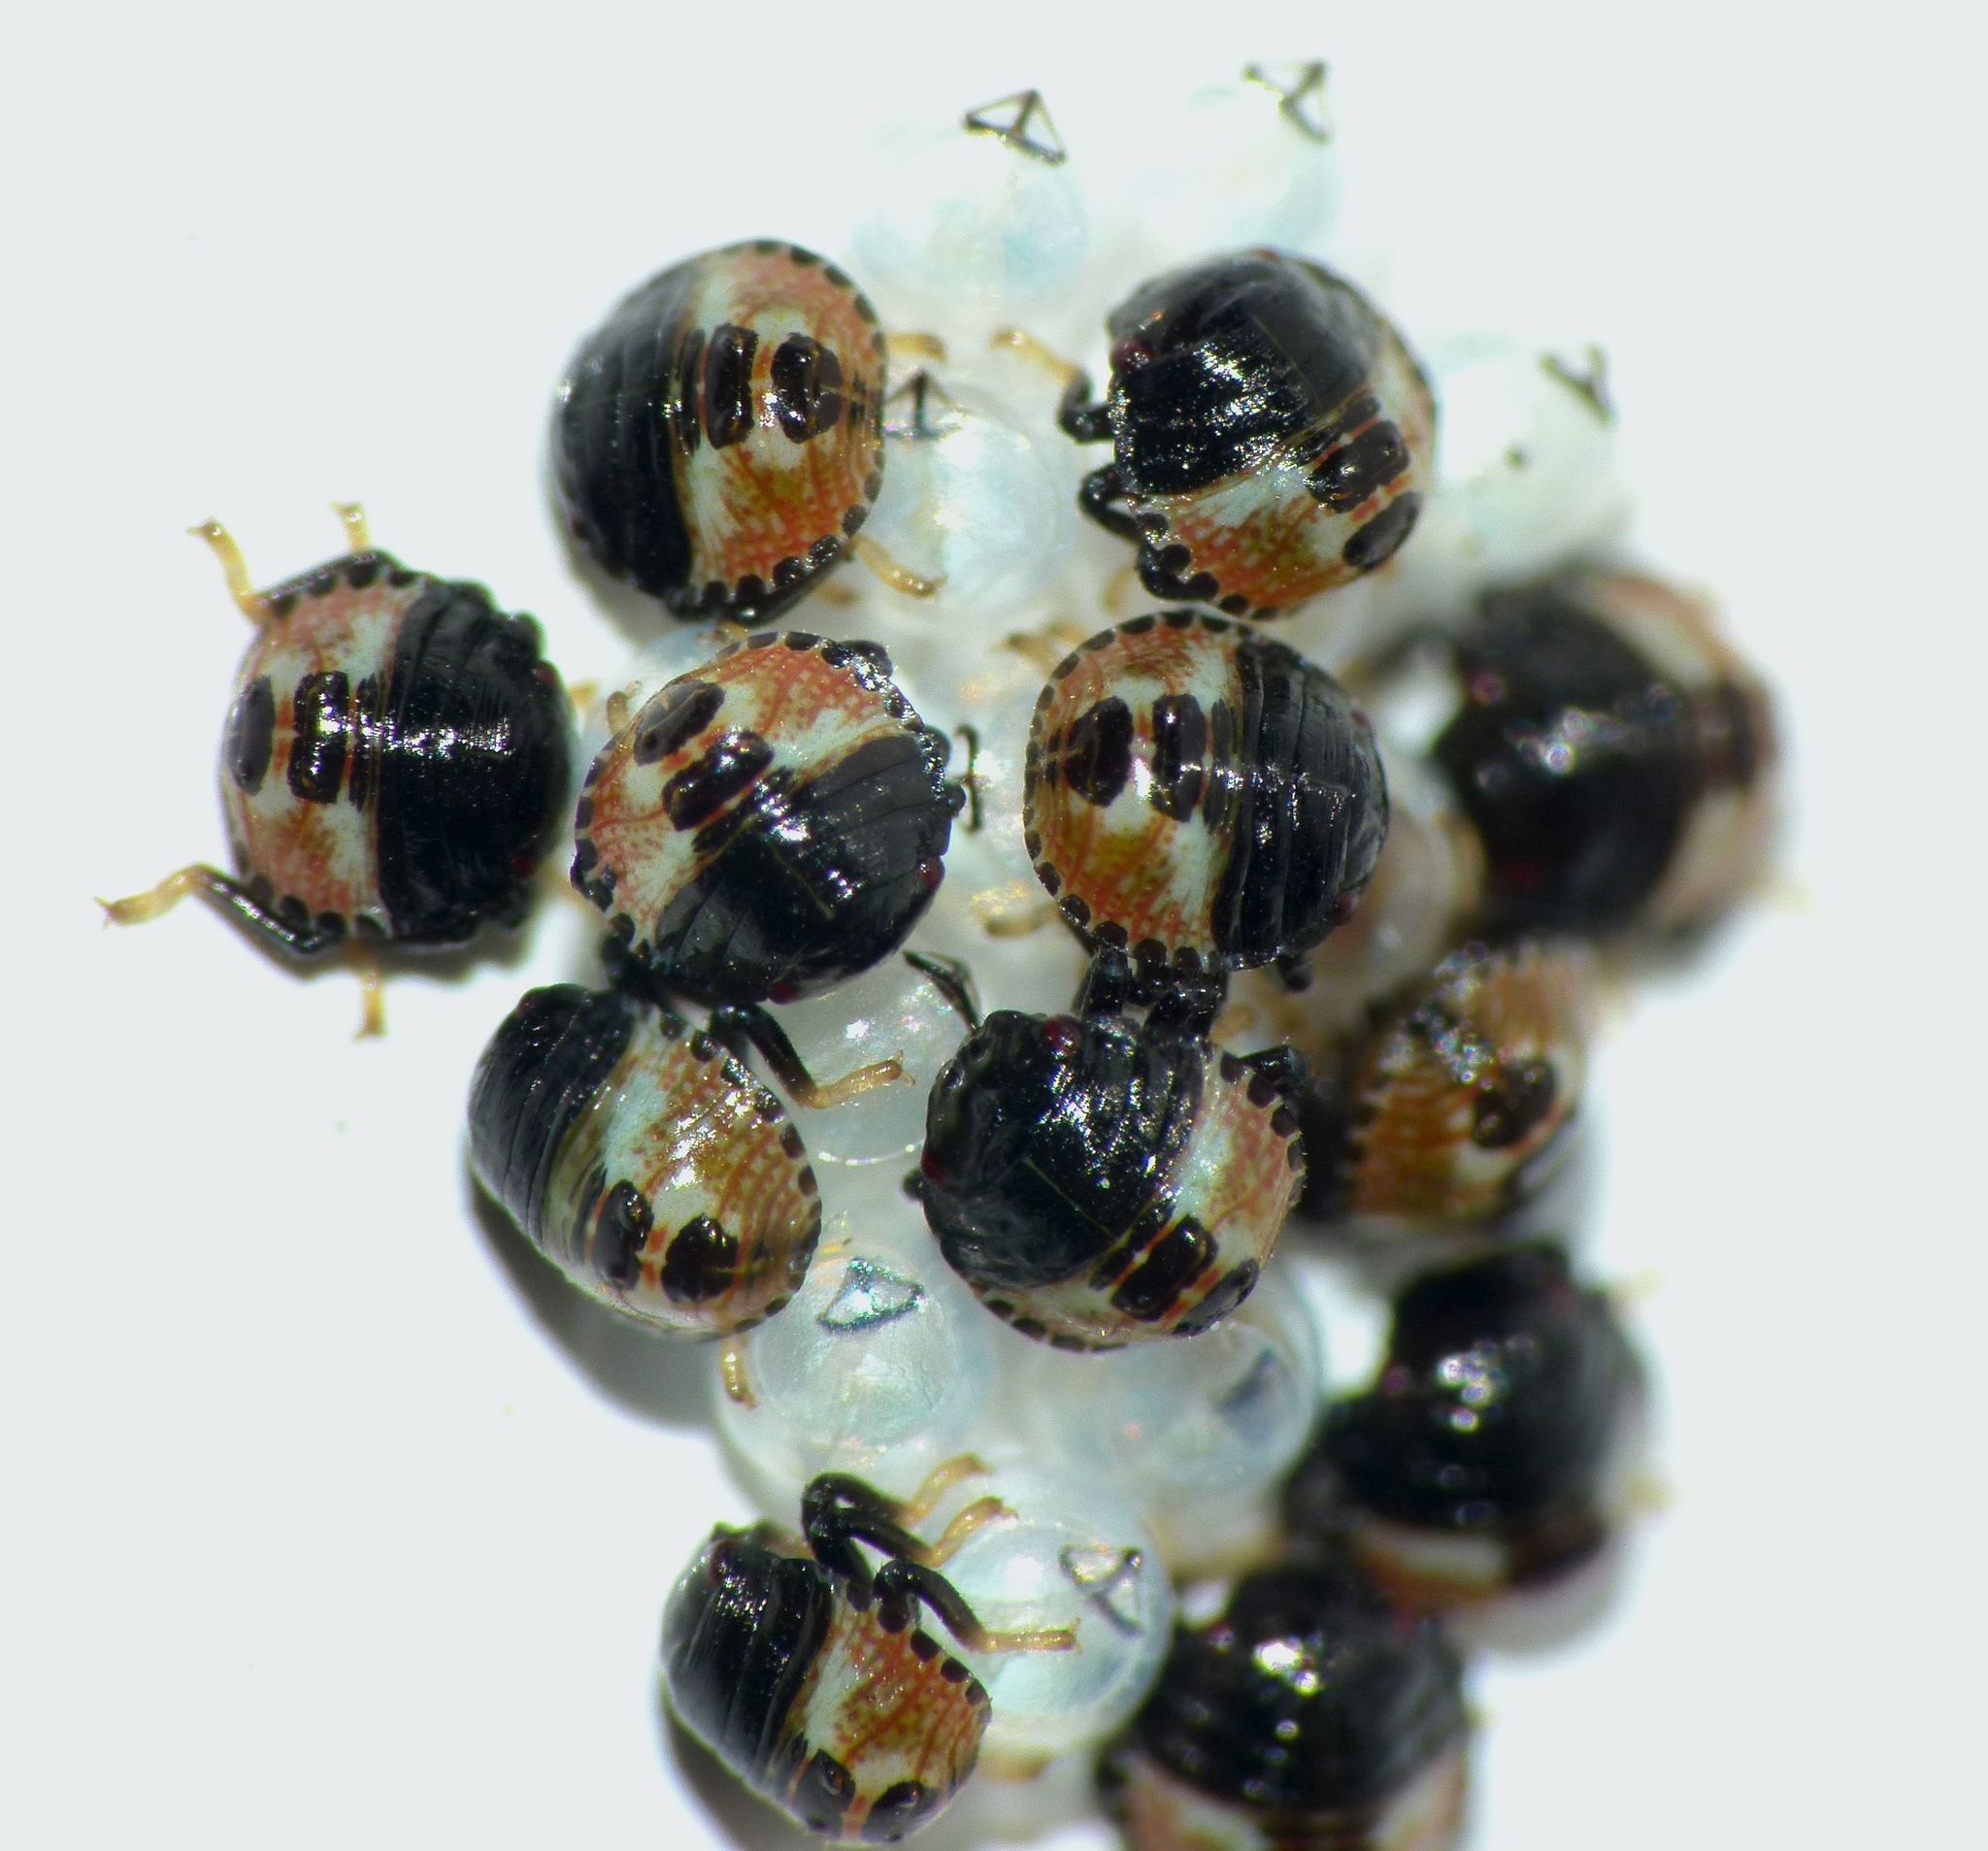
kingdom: Animalia
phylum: Arthropoda
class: Insecta
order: Hemiptera
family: Pentatomidae
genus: Dictyotus
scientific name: Dictyotus caenosus
